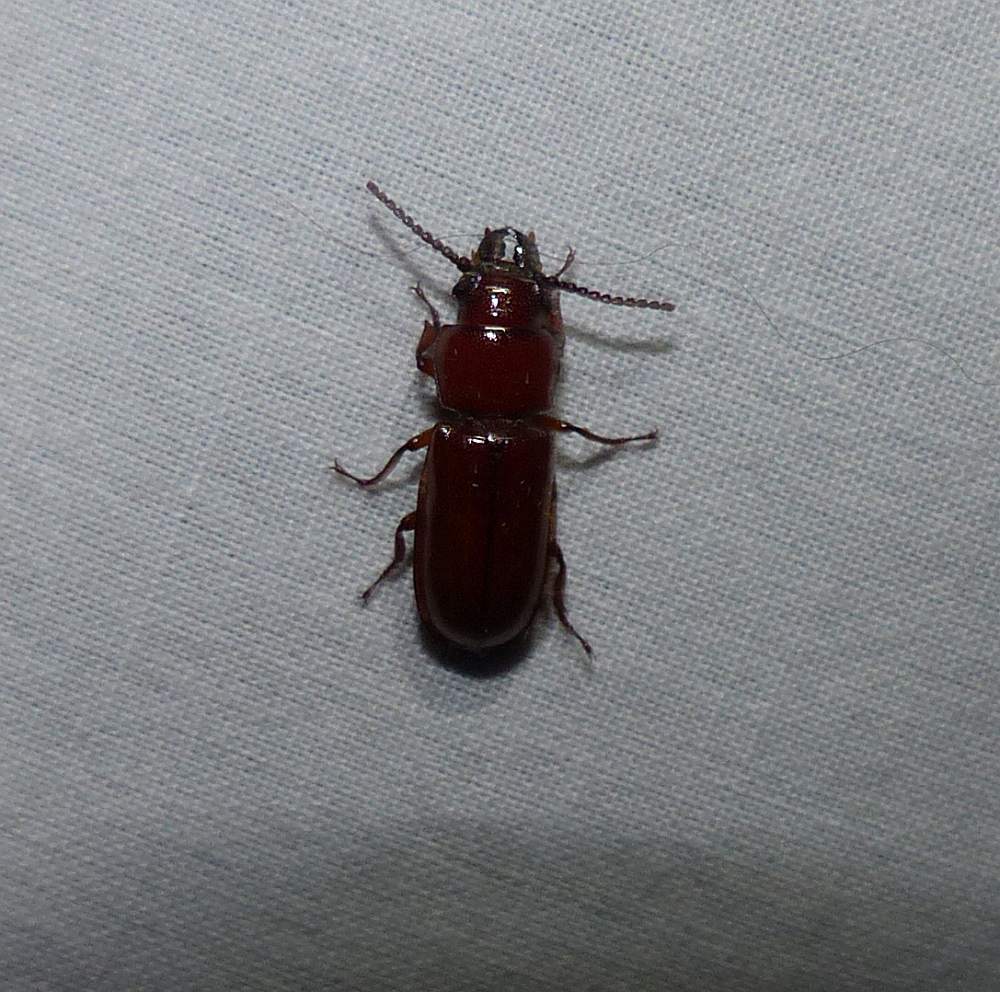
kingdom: Animalia
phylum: Arthropoda
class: Insecta
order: Coleoptera
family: Cerambycidae
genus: Neandra
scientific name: Neandra brunnea
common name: Pole borer
